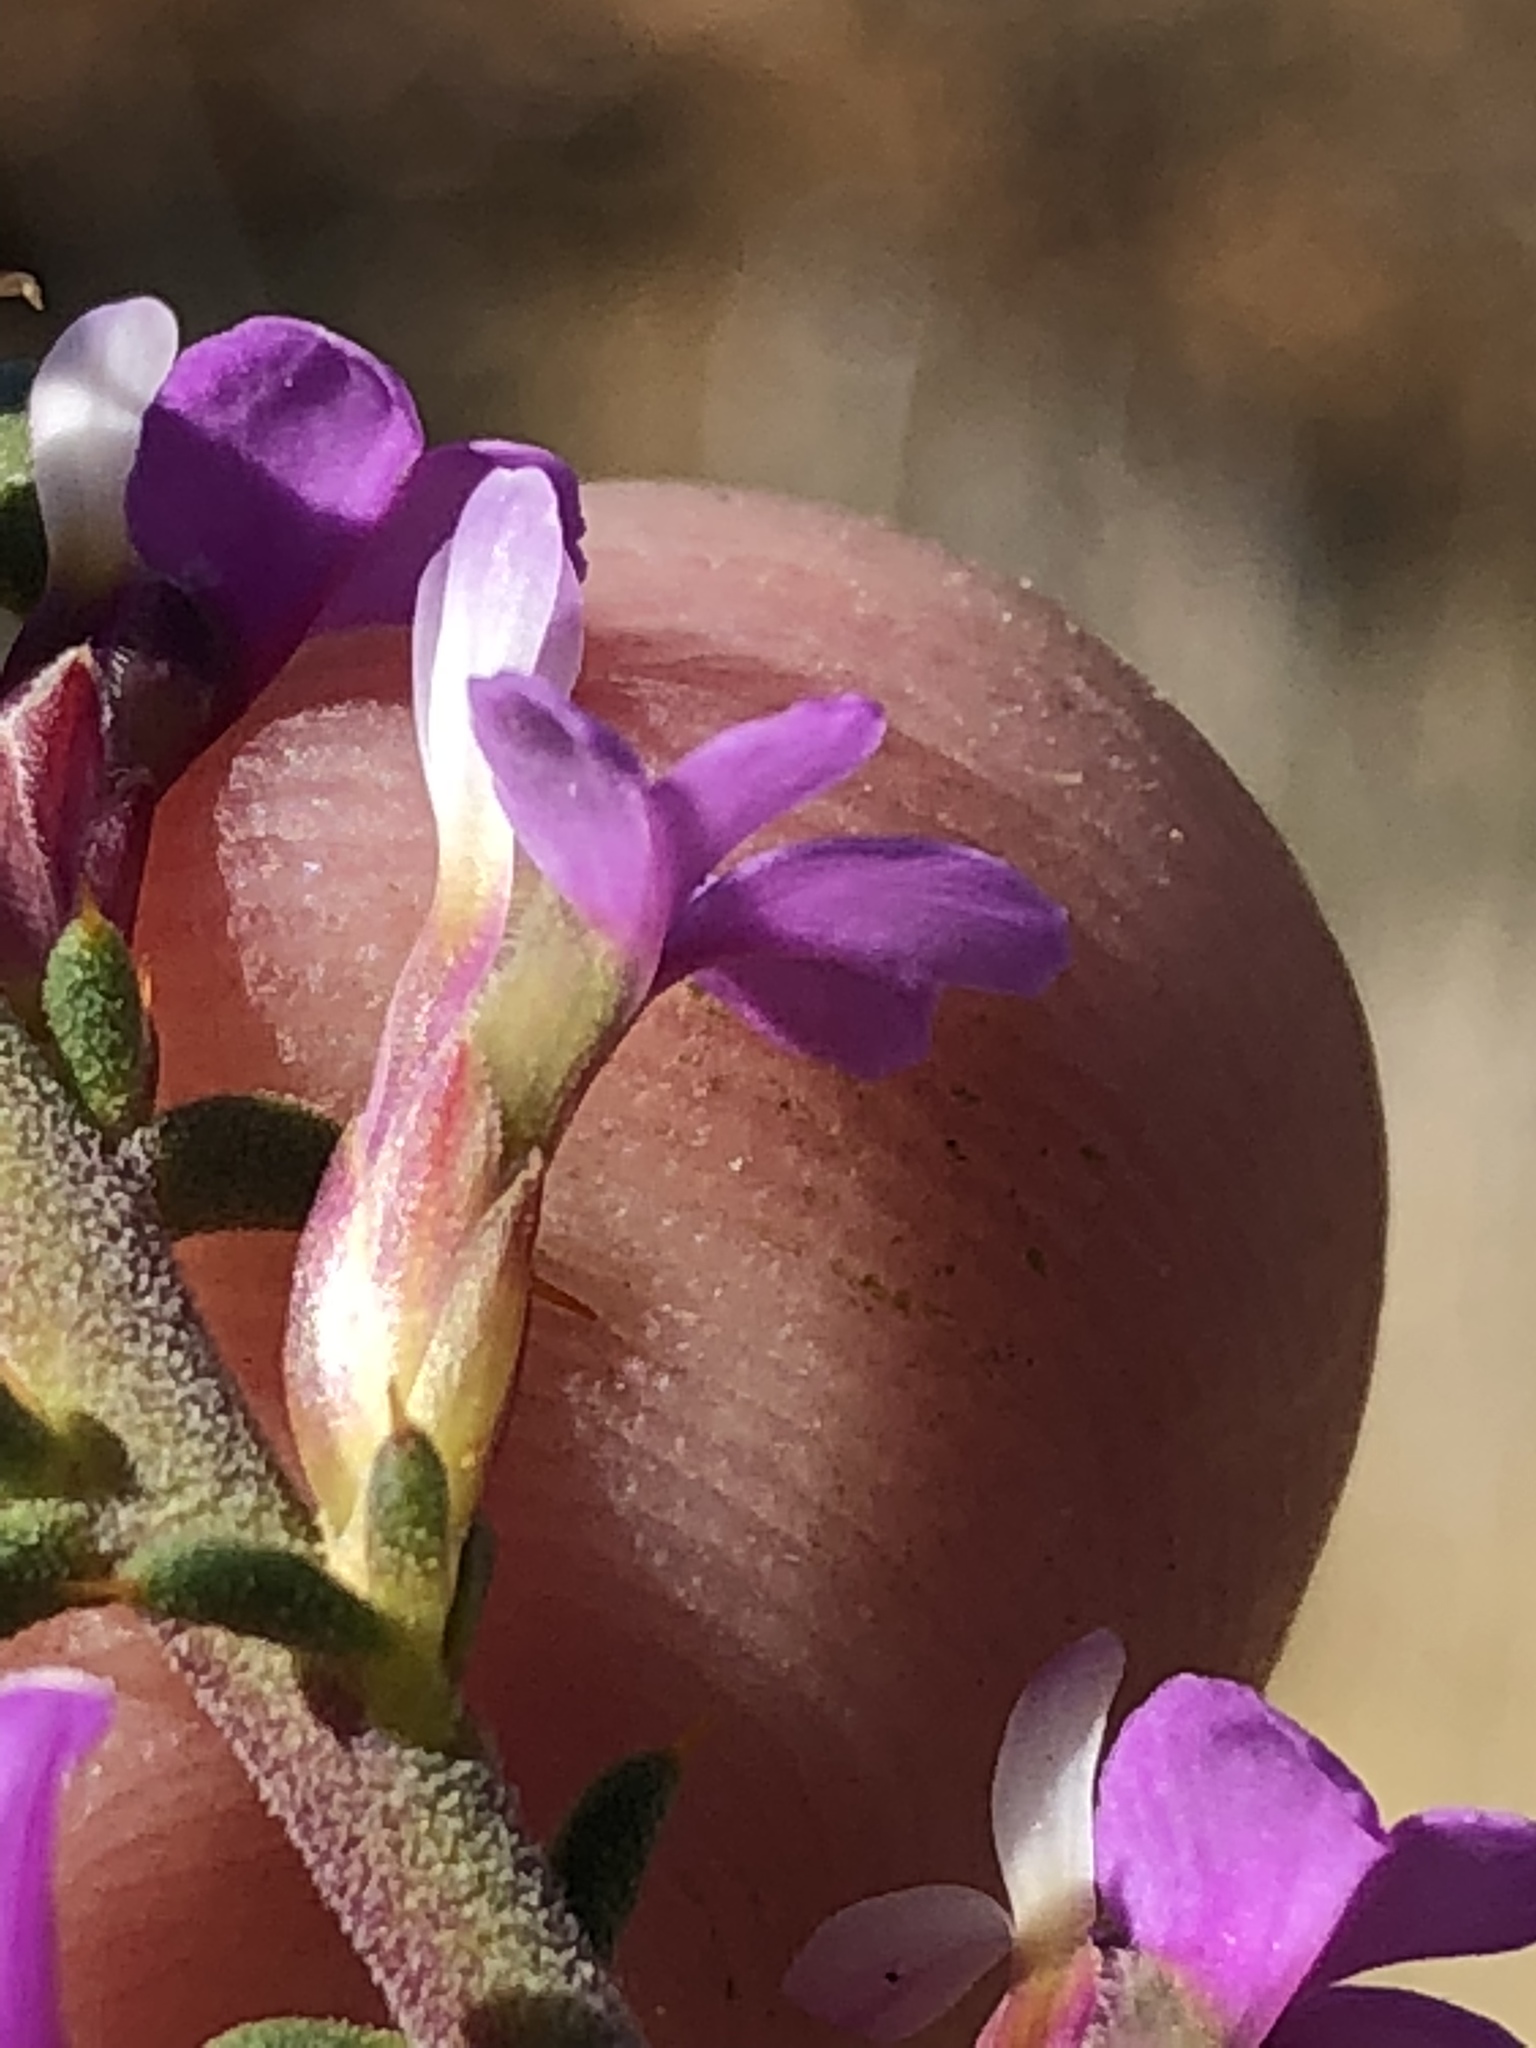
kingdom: Plantae
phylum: Tracheophyta
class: Magnoliopsida
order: Fabales
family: Polygalaceae
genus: Muraltia
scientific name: Muraltia heisteria
